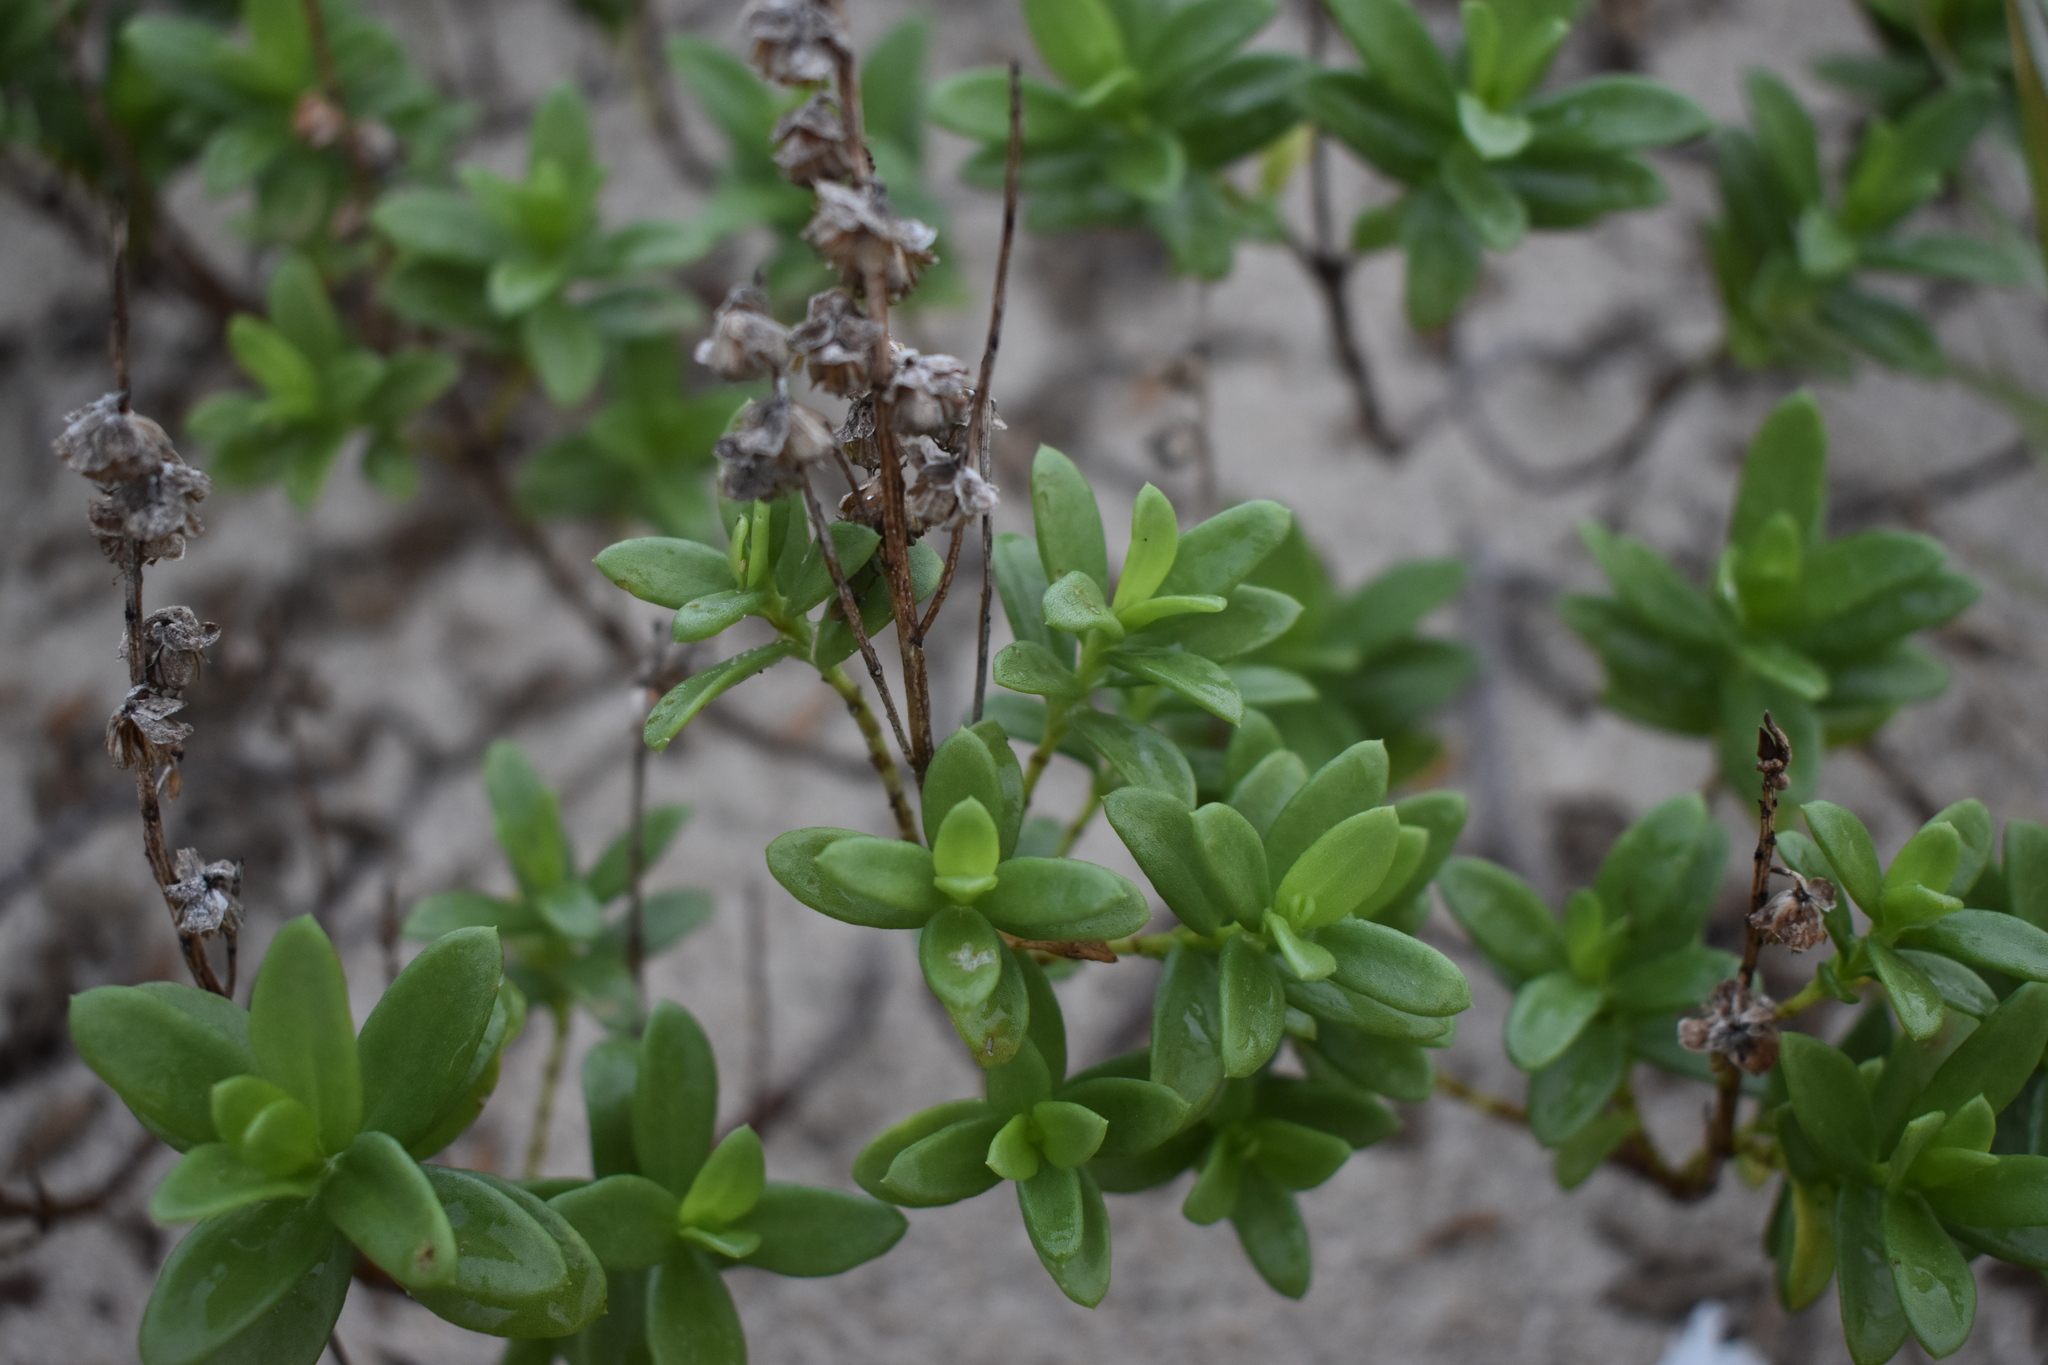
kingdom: Plantae
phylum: Tracheophyta
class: Magnoliopsida
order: Asterales
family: Asteraceae
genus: Iva
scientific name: Iva imbricata
